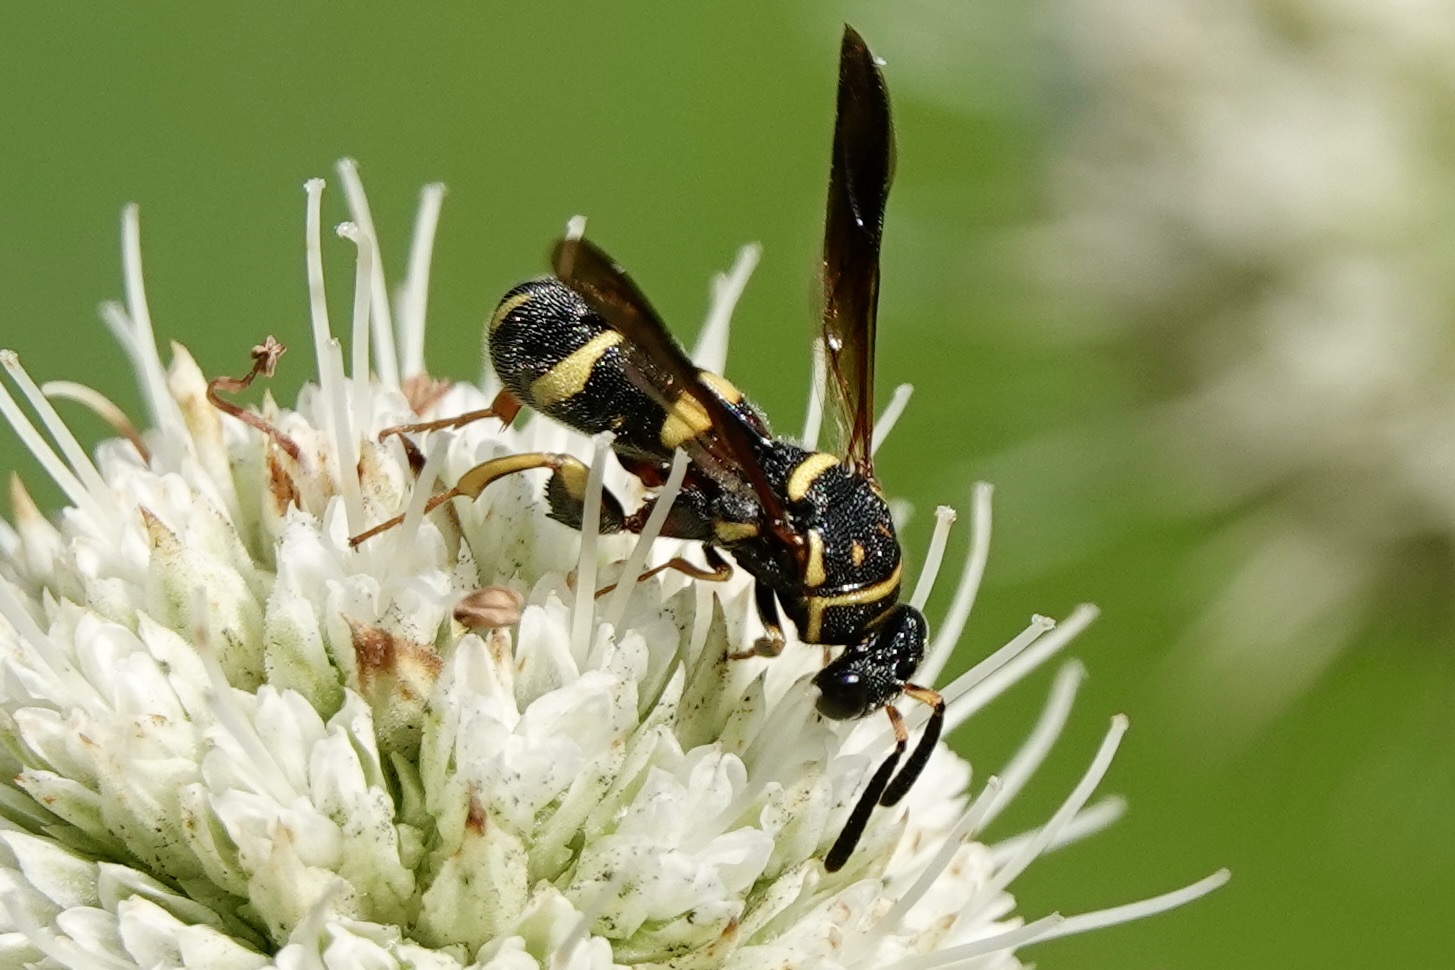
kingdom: Animalia
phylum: Arthropoda
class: Insecta
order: Hymenoptera
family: Leucospidae
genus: Leucospis
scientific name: Leucospis affinis
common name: Wasp
